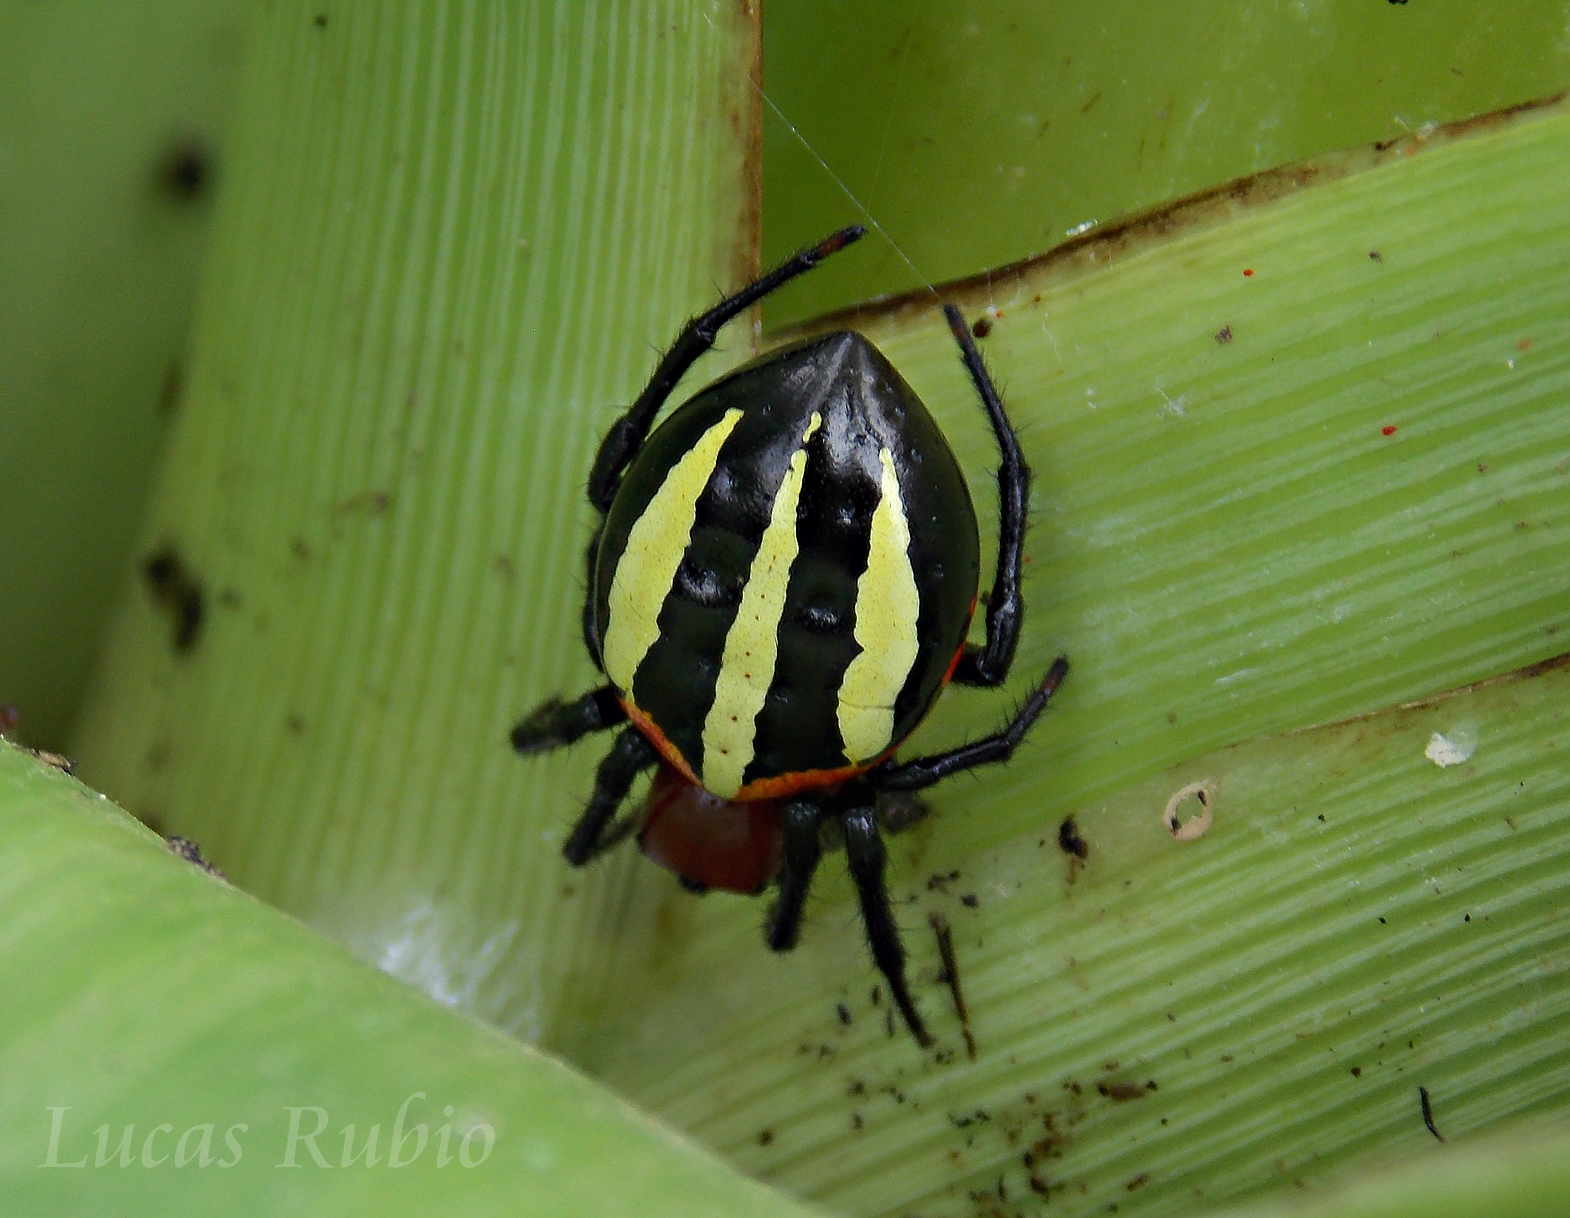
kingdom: Animalia
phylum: Arthropoda
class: Arachnida
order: Araneae
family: Araneidae
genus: Alpaida
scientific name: Alpaida quadrilorata
